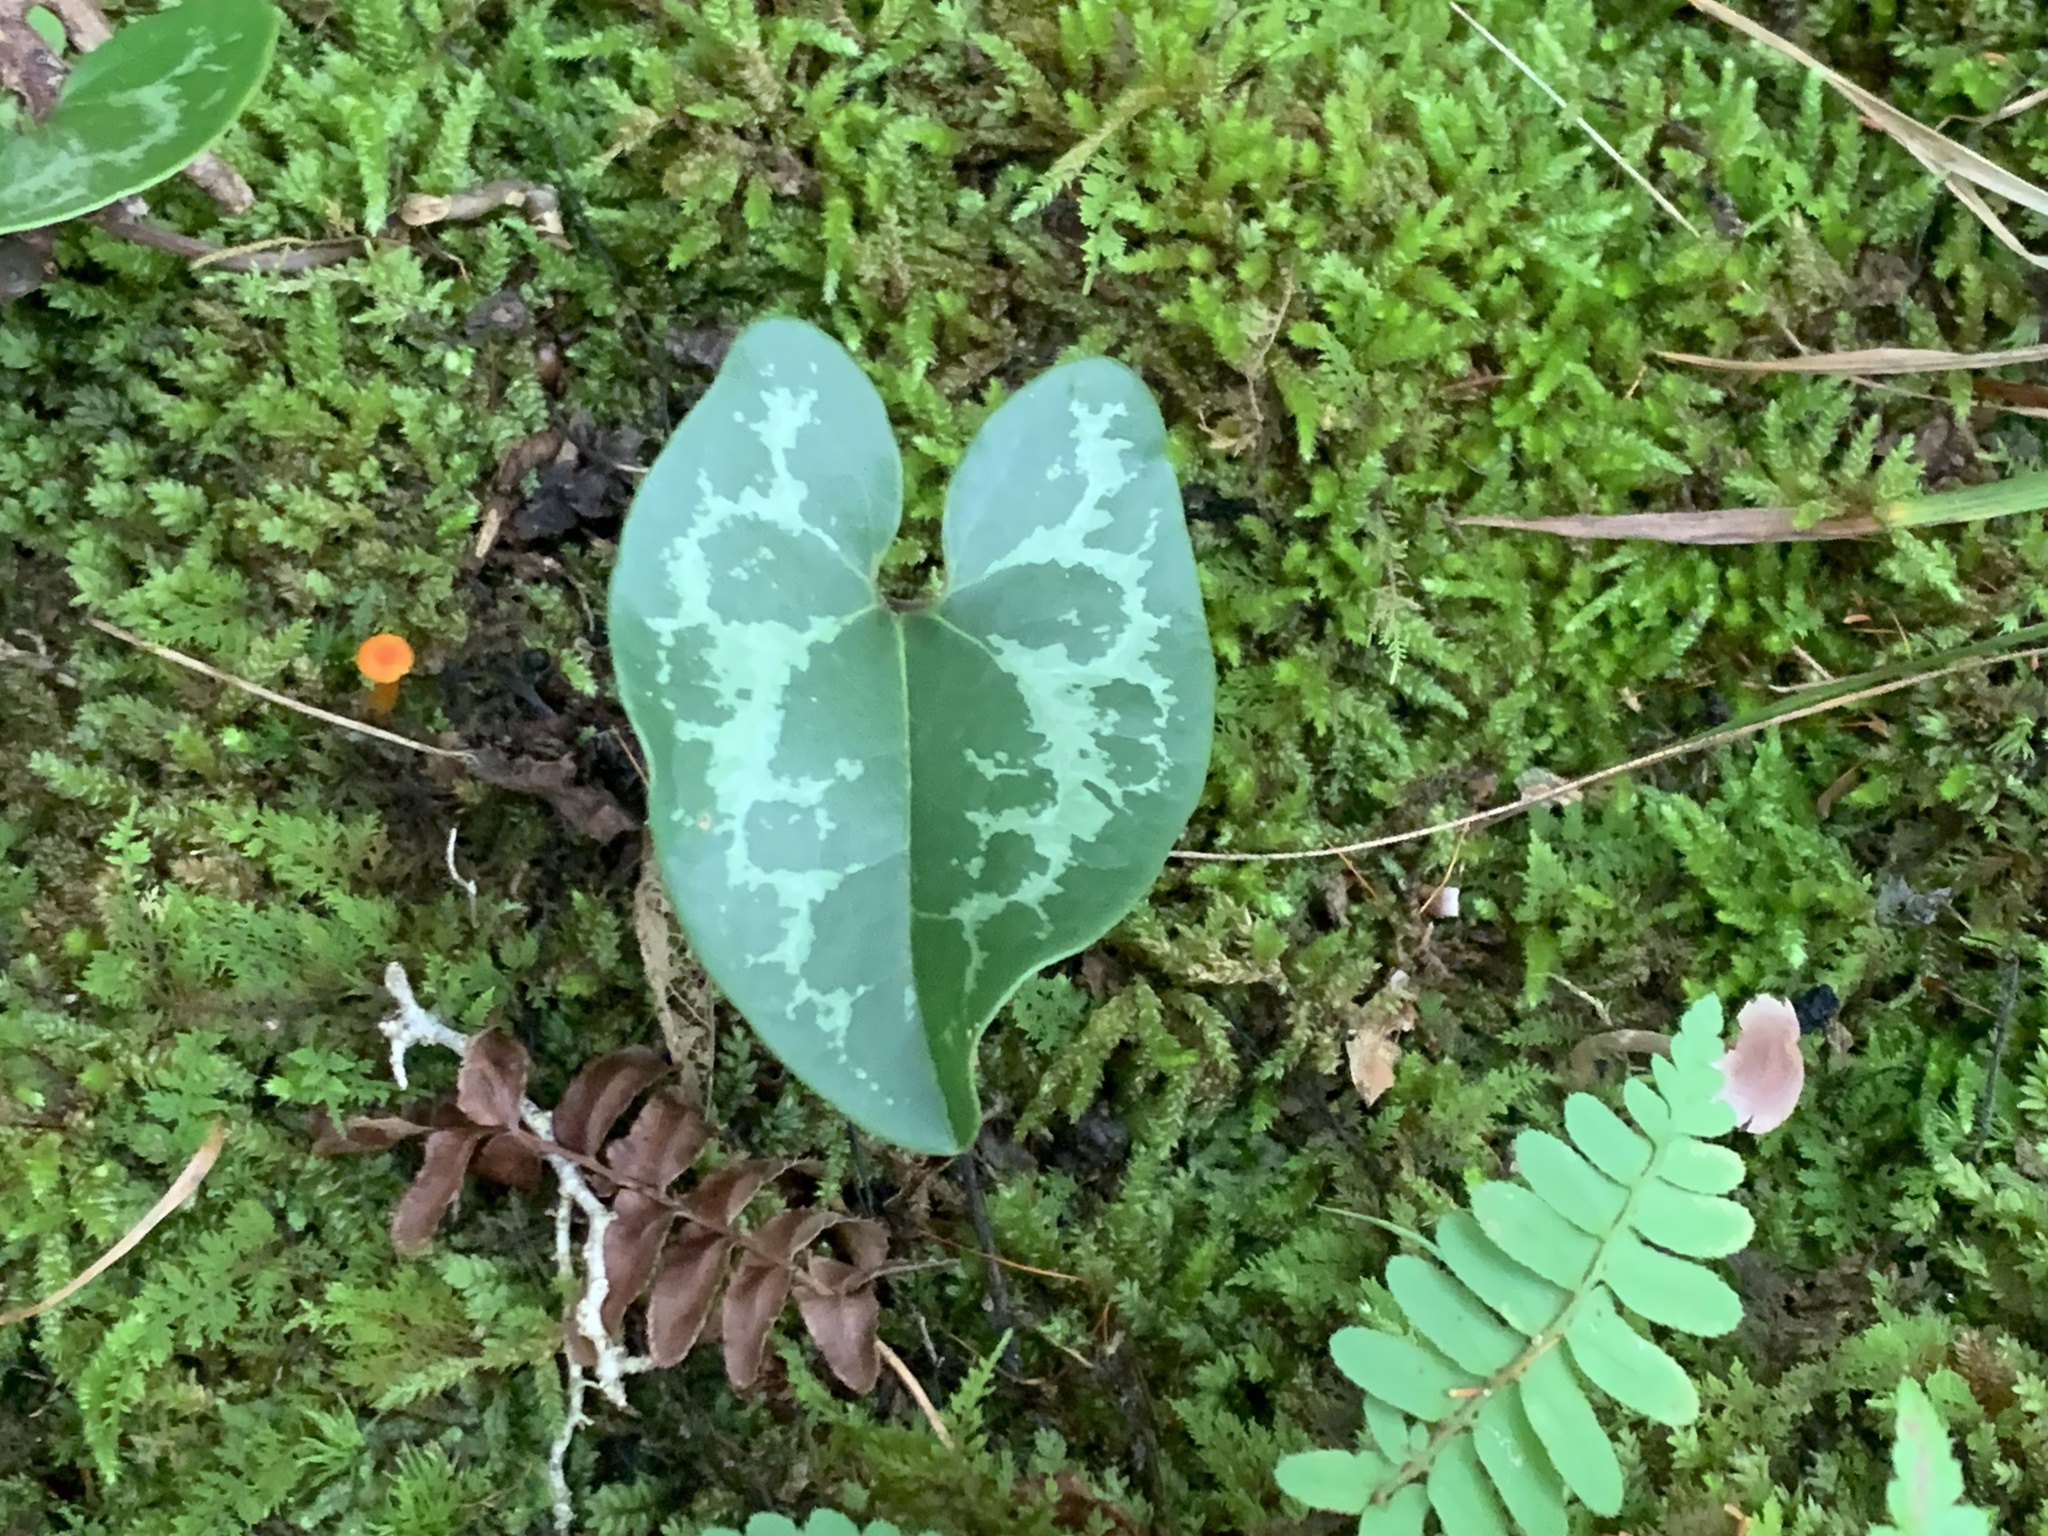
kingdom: Plantae
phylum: Tracheophyta
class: Magnoliopsida
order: Piperales
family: Aristolochiaceae
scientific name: Aristolochiaceae
